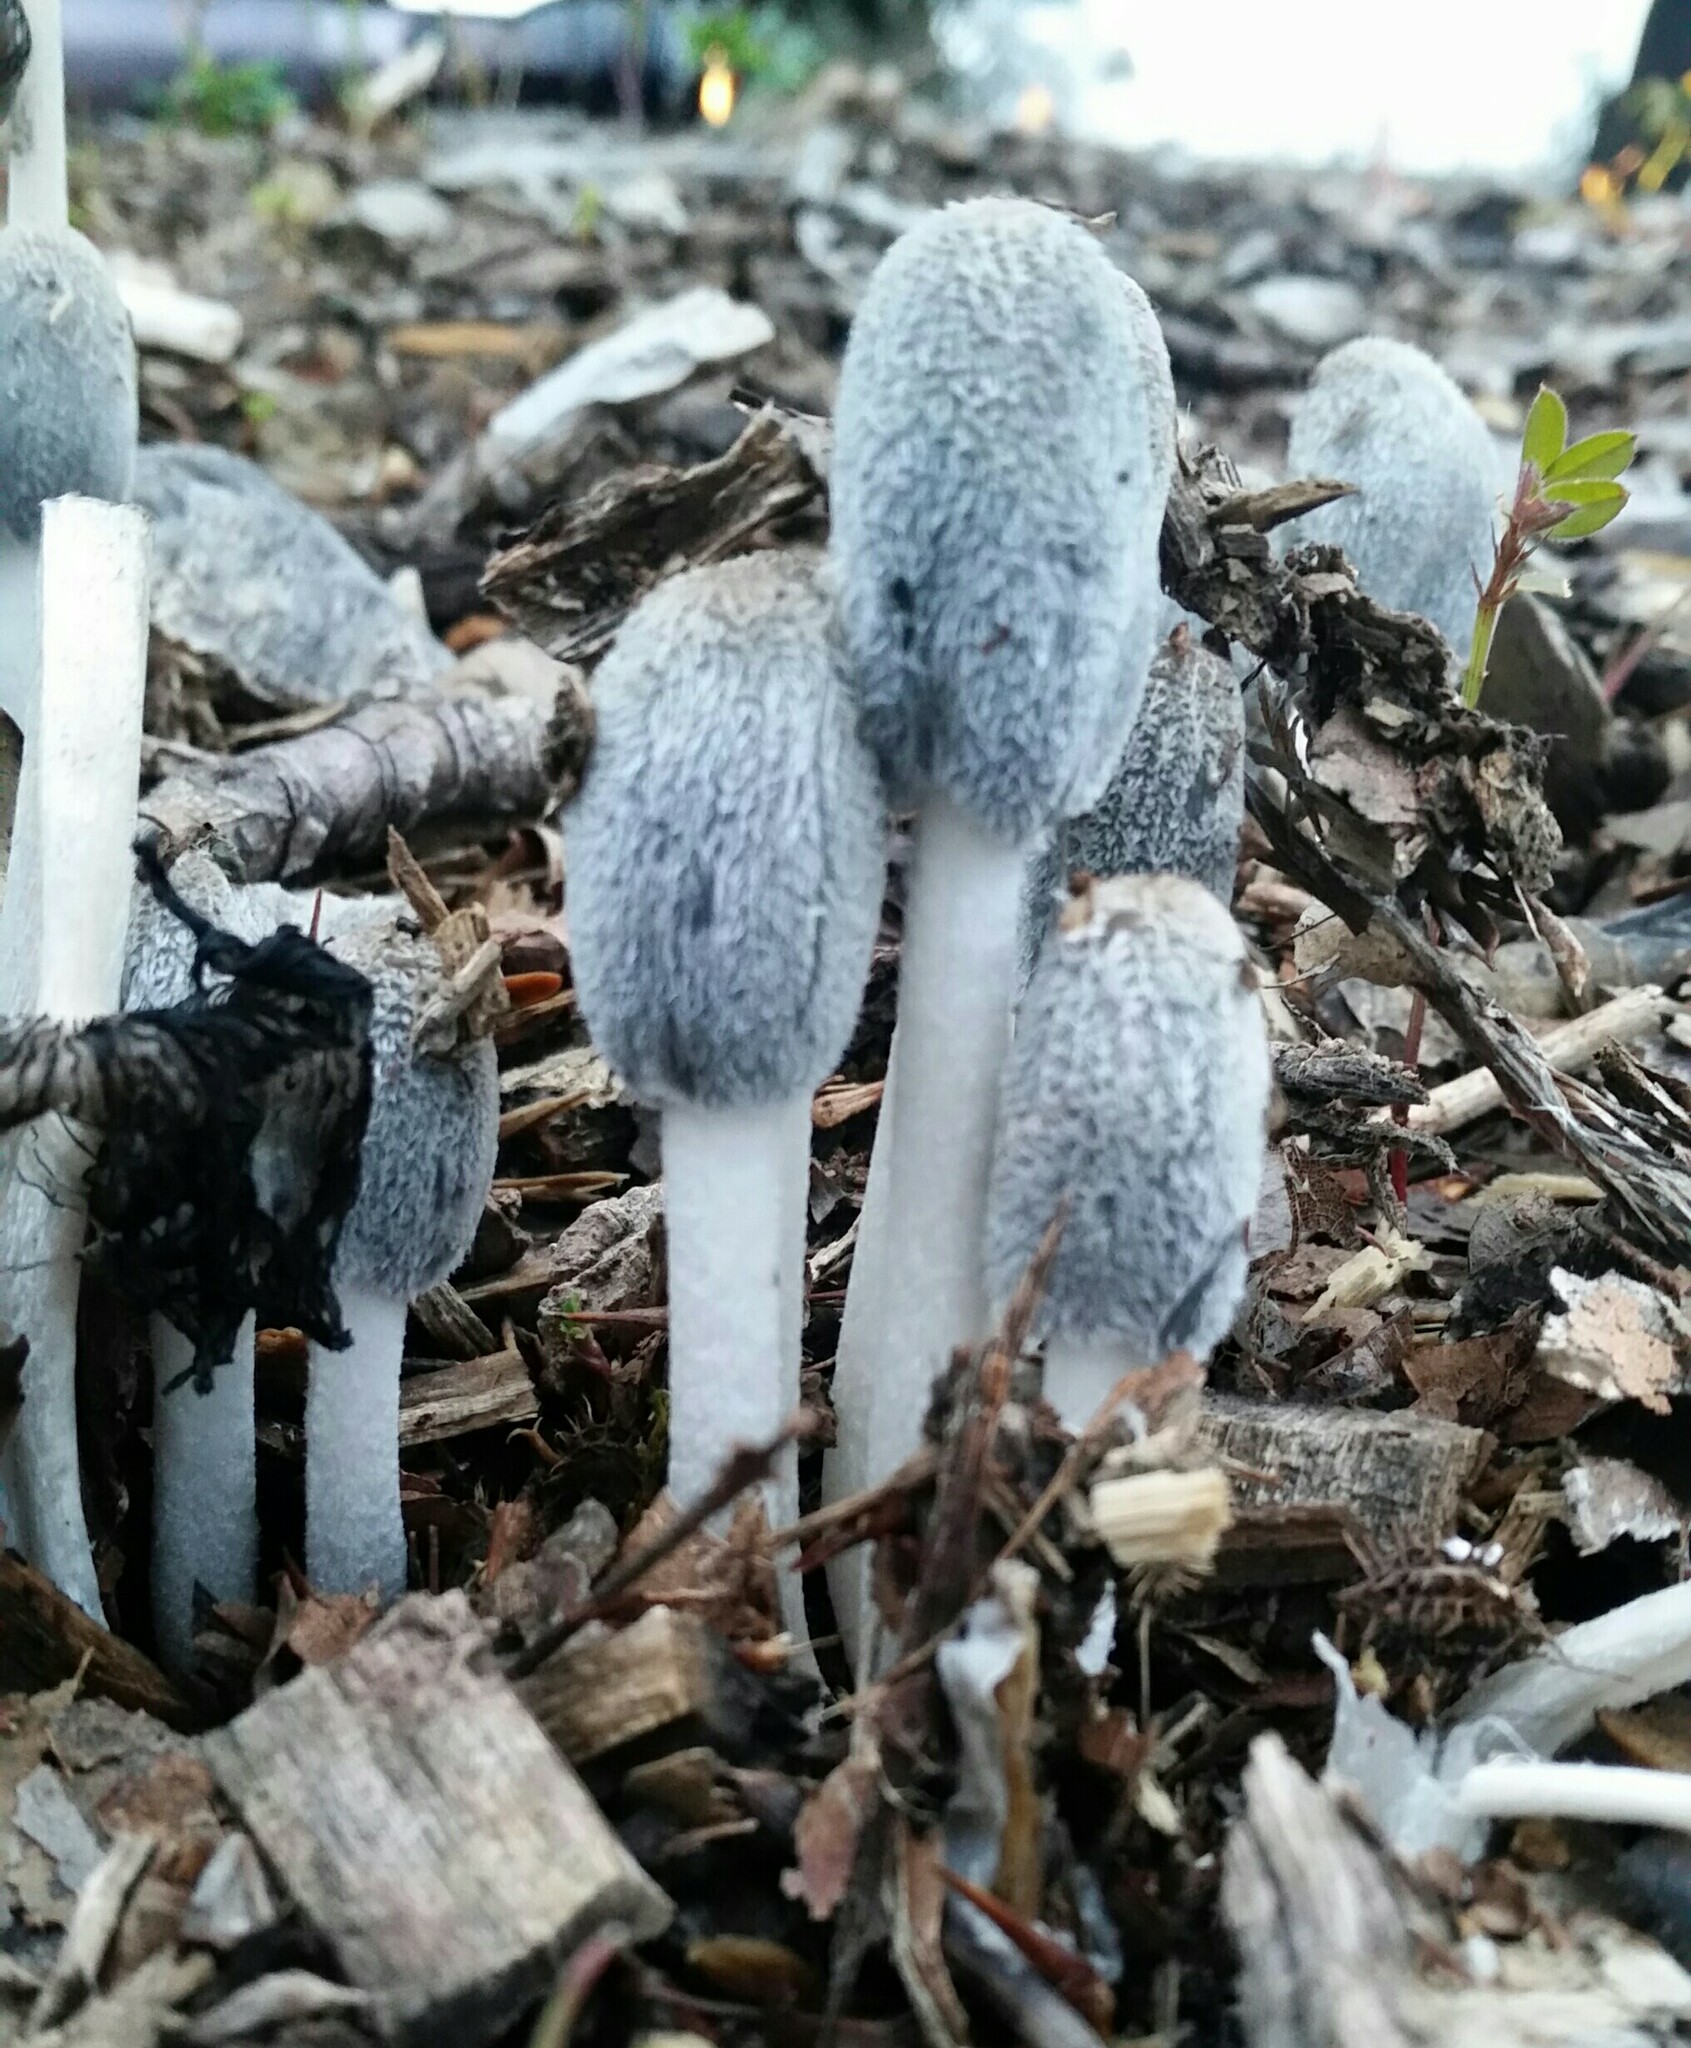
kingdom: Fungi
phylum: Basidiomycota
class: Agaricomycetes
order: Agaricales
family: Psathyrellaceae
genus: Coprinopsis
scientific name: Coprinopsis lagopus
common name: Hare'sfoot inkcap
